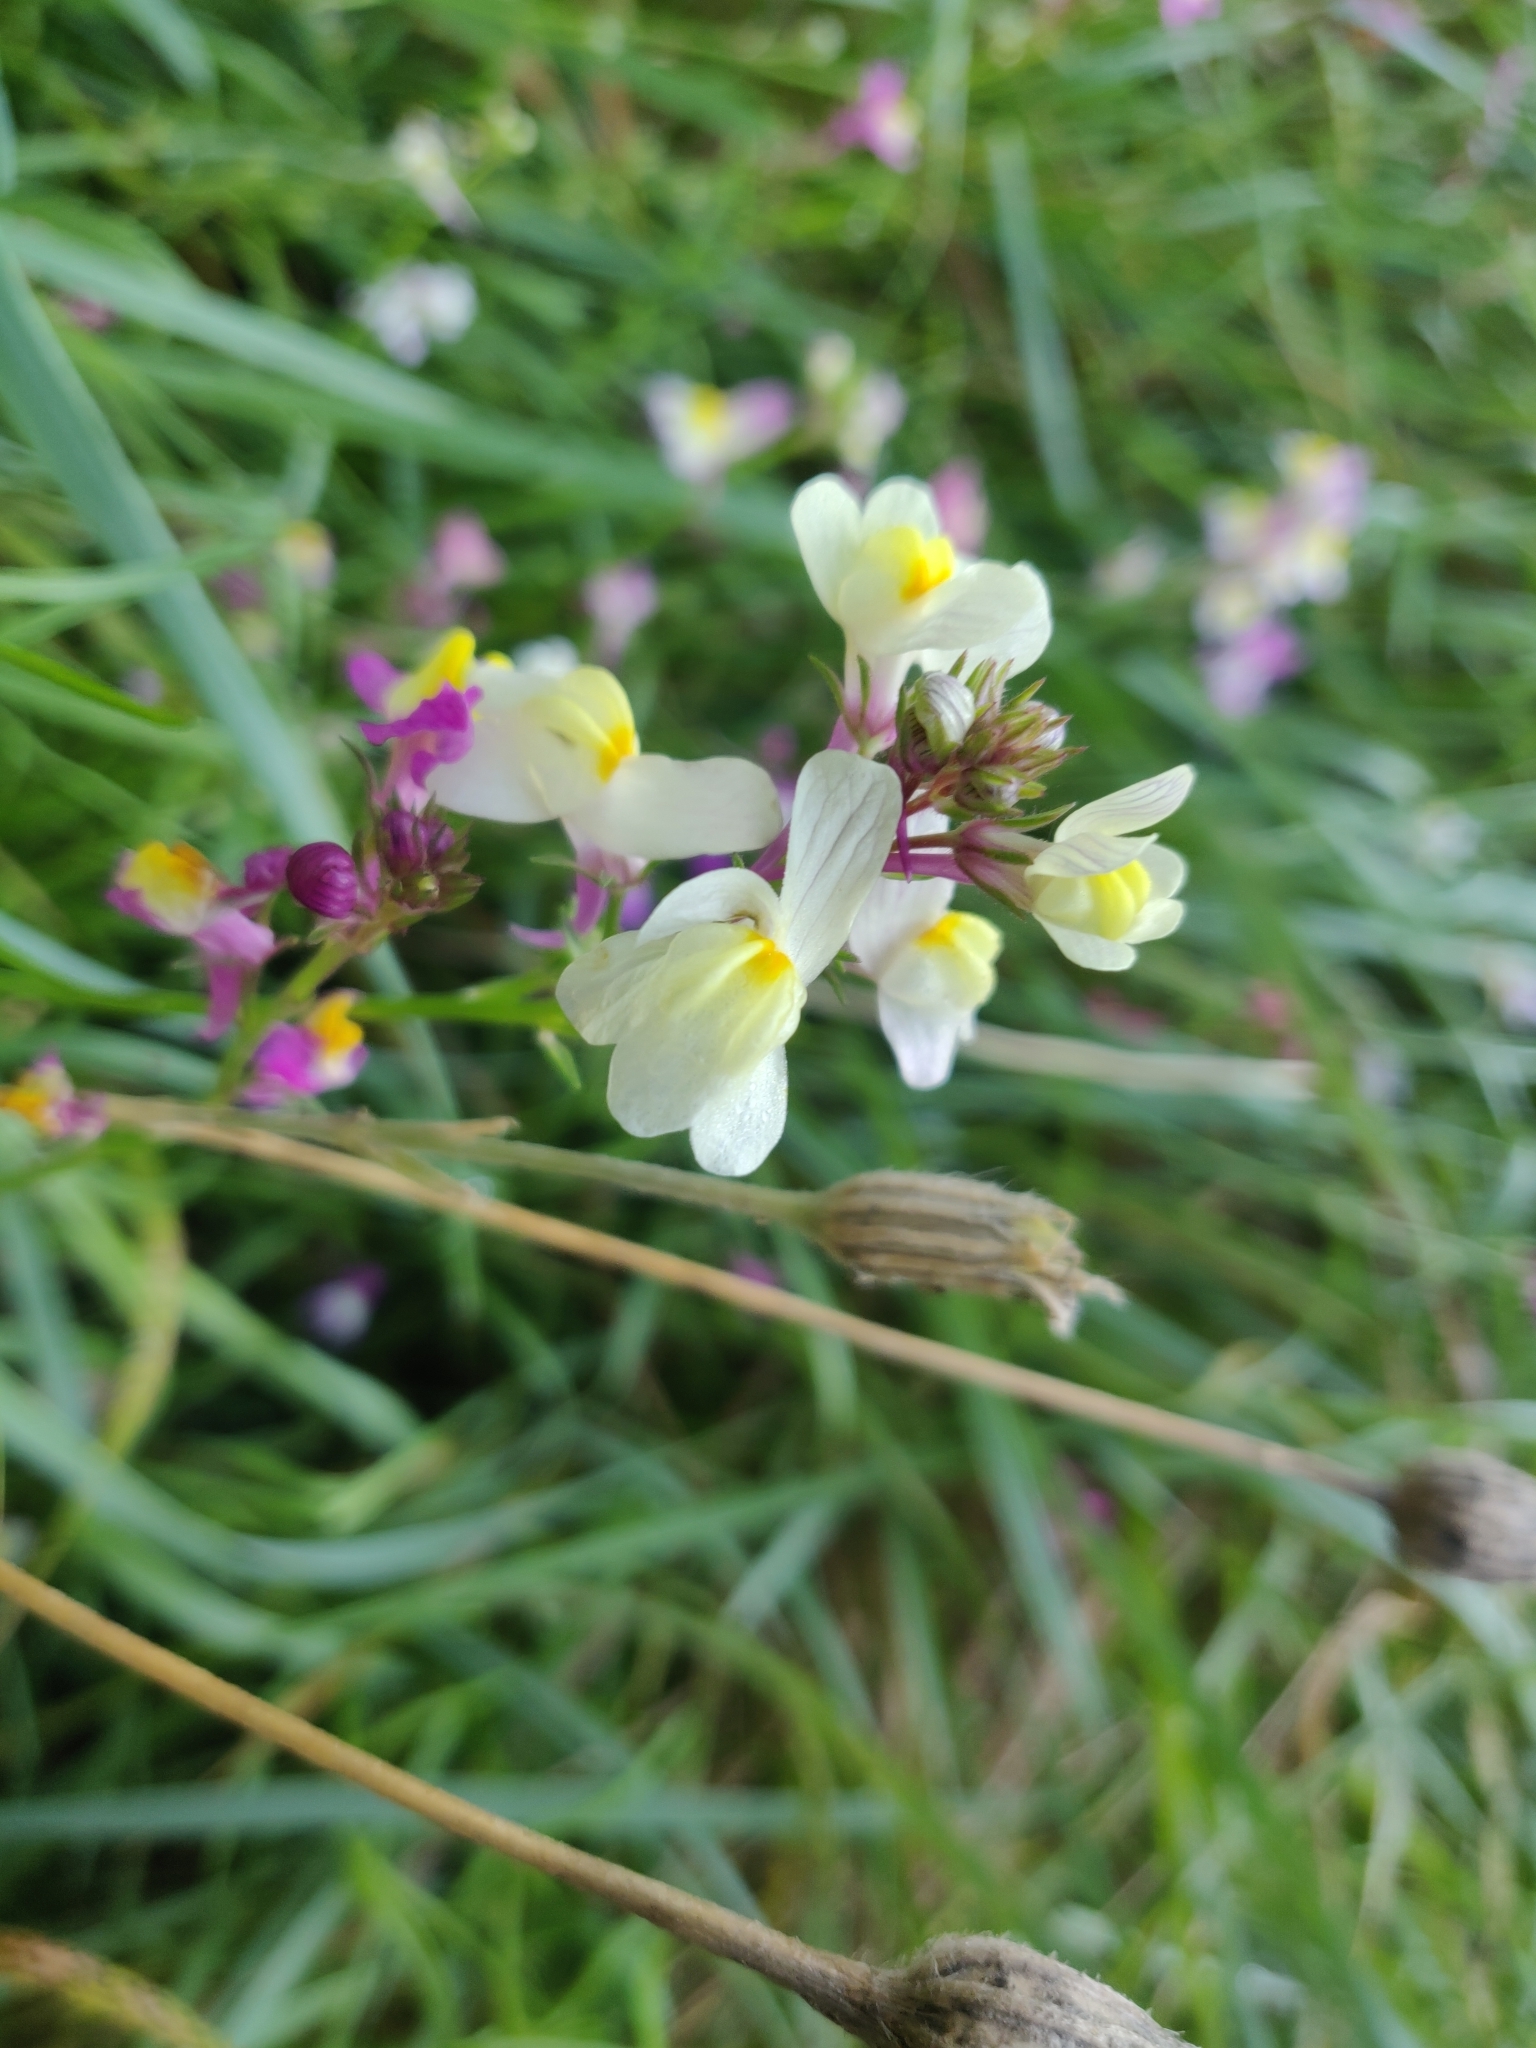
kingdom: Plantae
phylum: Tracheophyta
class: Magnoliopsida
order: Lamiales
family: Plantaginaceae
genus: Linaria
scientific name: Linaria maroccana
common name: Moroccan toadflax
